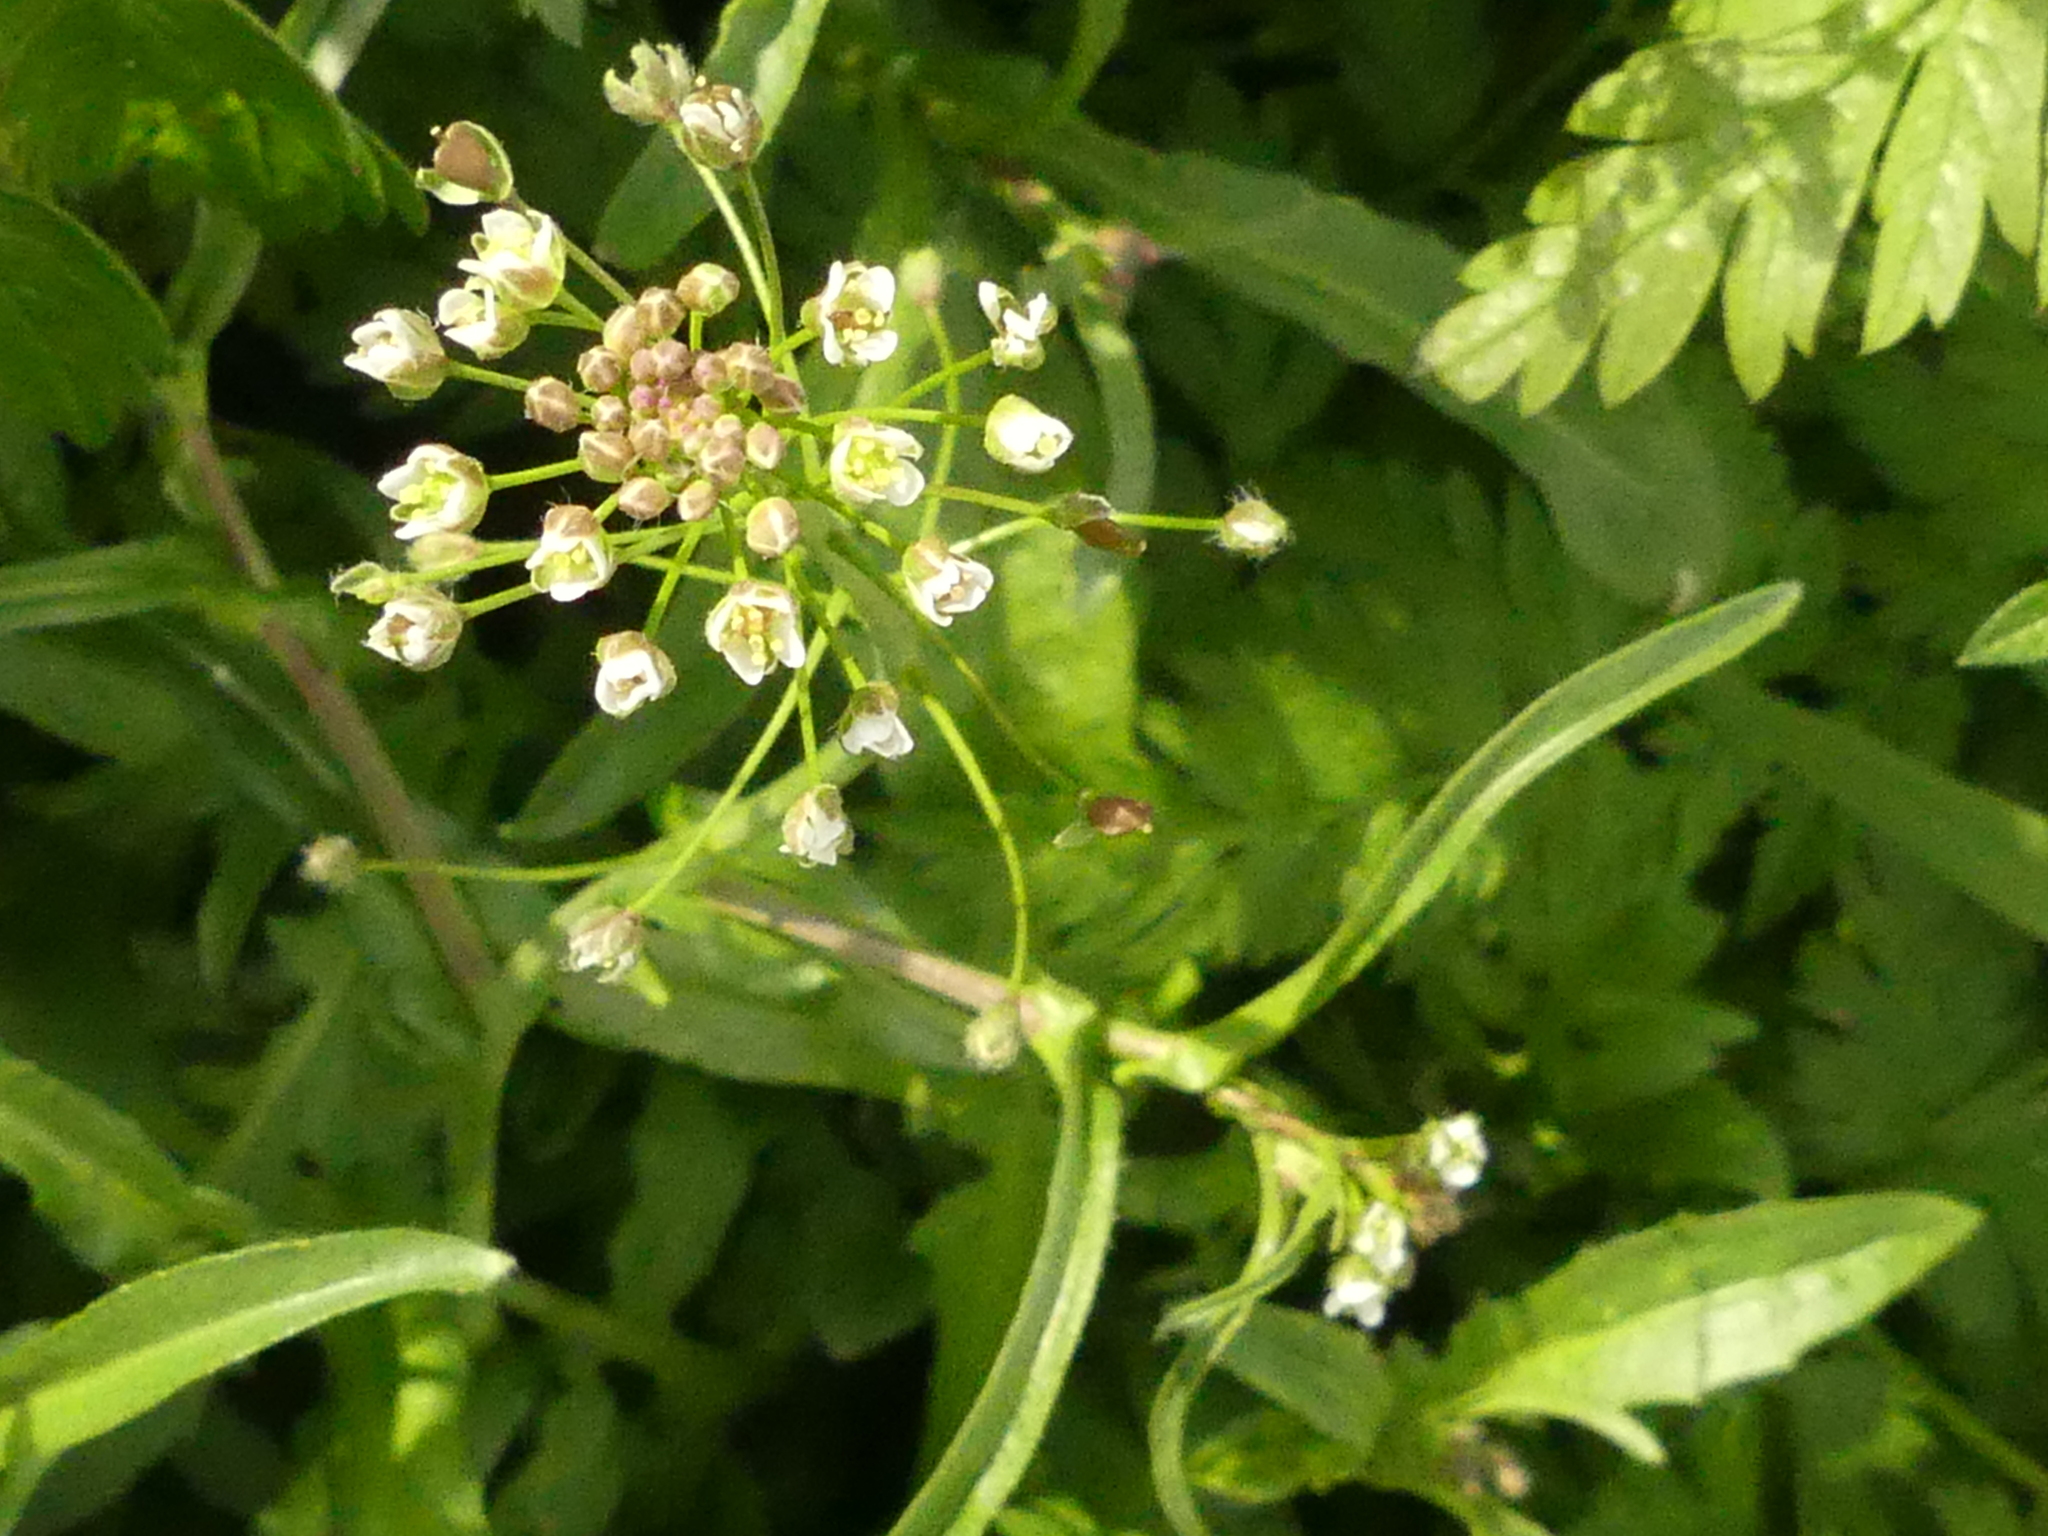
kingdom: Plantae
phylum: Tracheophyta
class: Magnoliopsida
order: Brassicales
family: Brassicaceae
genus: Capsella
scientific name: Capsella bursa-pastoris
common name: Shepherd's purse
